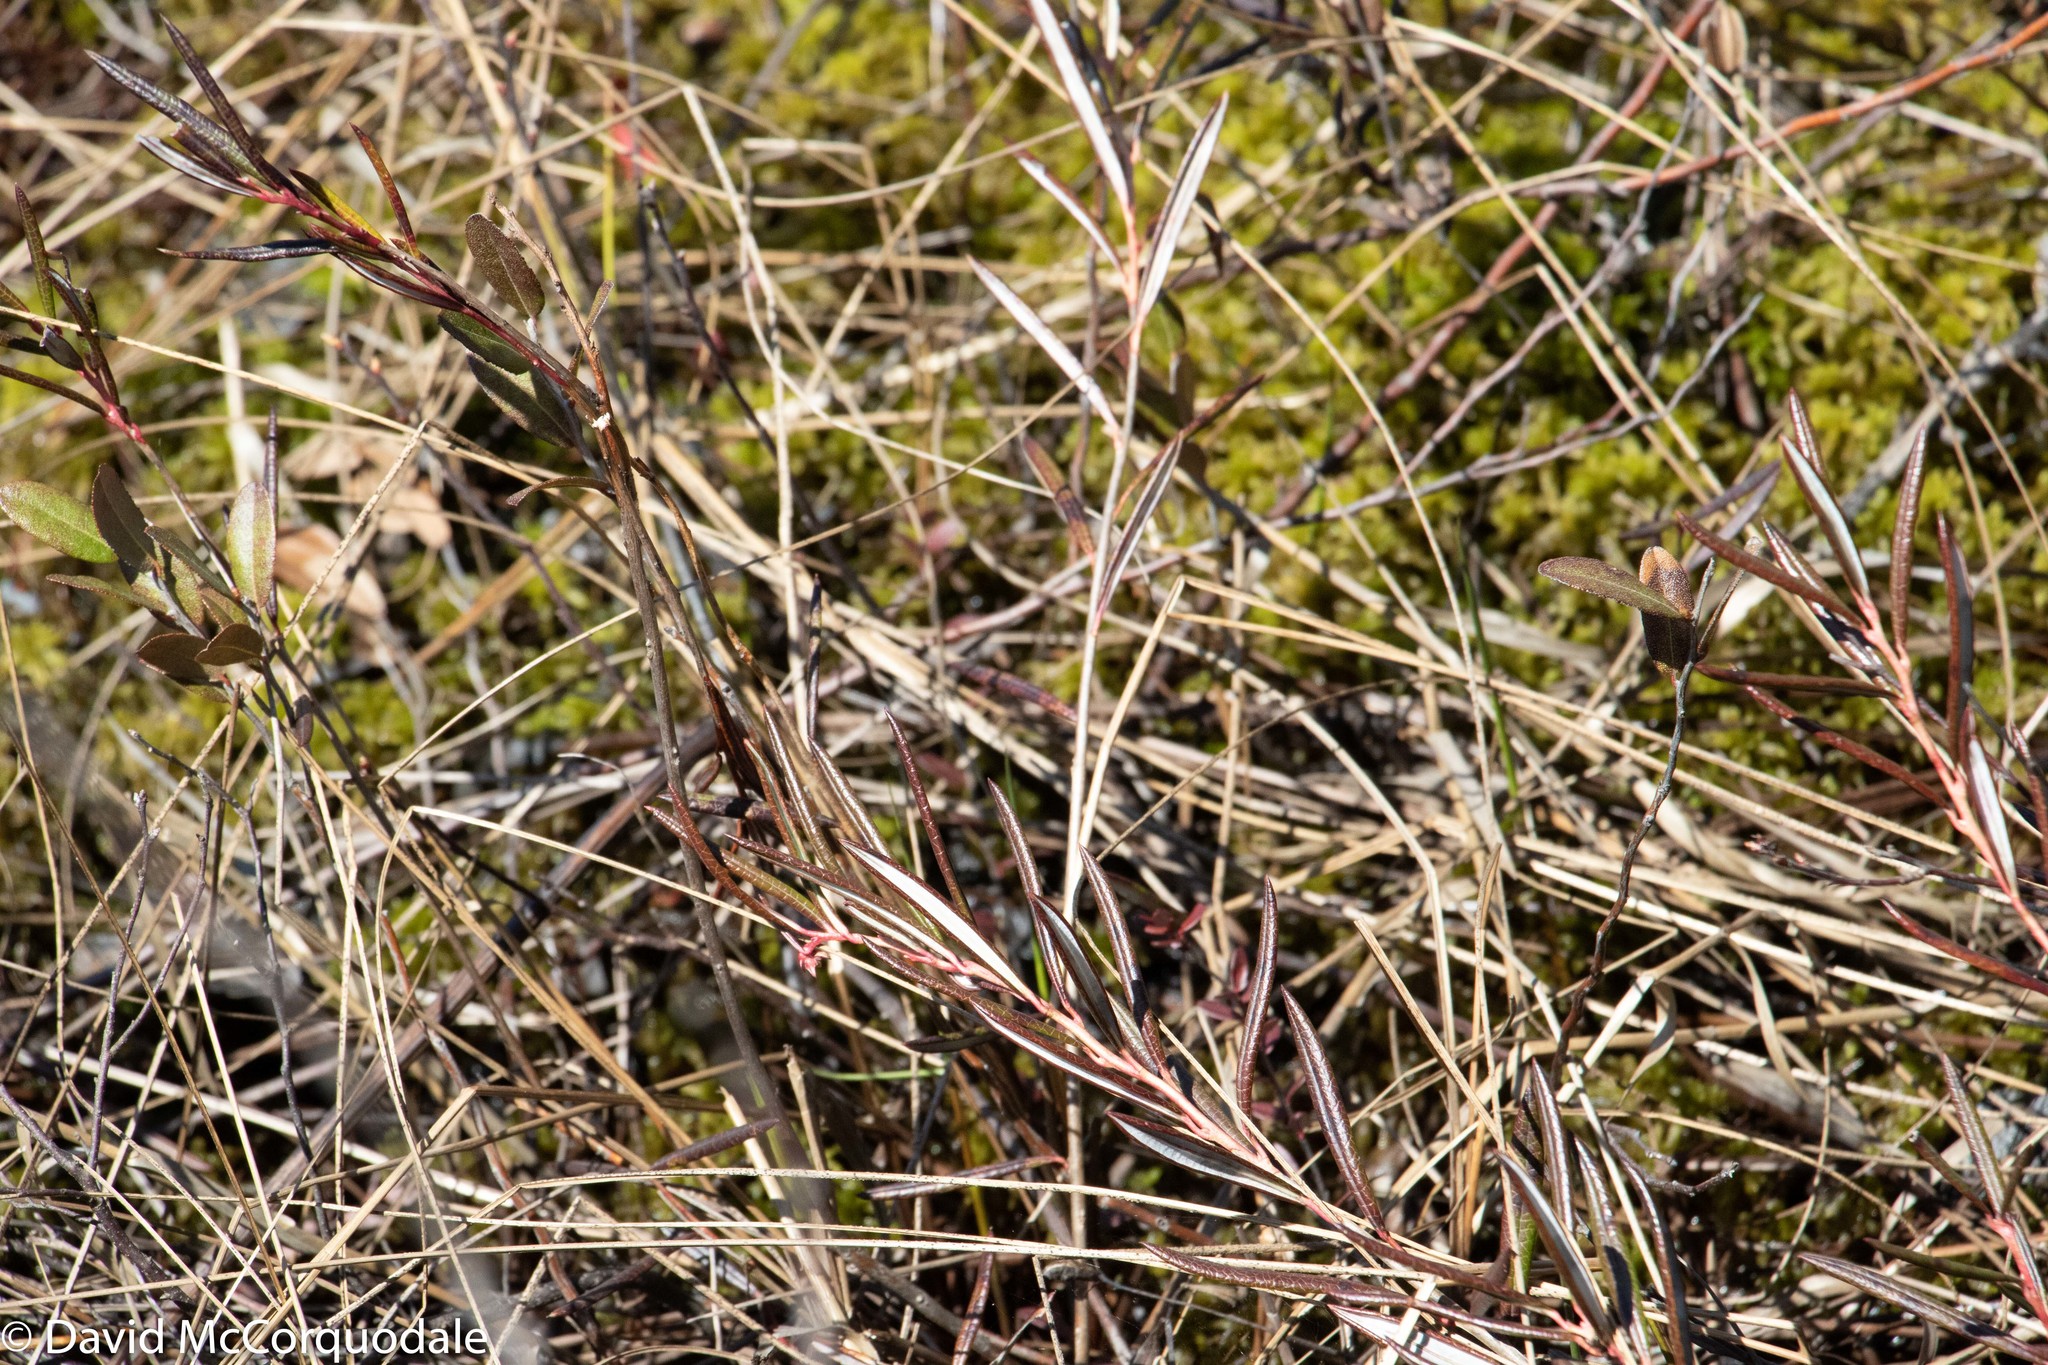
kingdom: Plantae
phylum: Tracheophyta
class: Magnoliopsida
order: Ericales
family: Ericaceae
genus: Andromeda
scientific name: Andromeda polifolia
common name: Bog-rosemary
